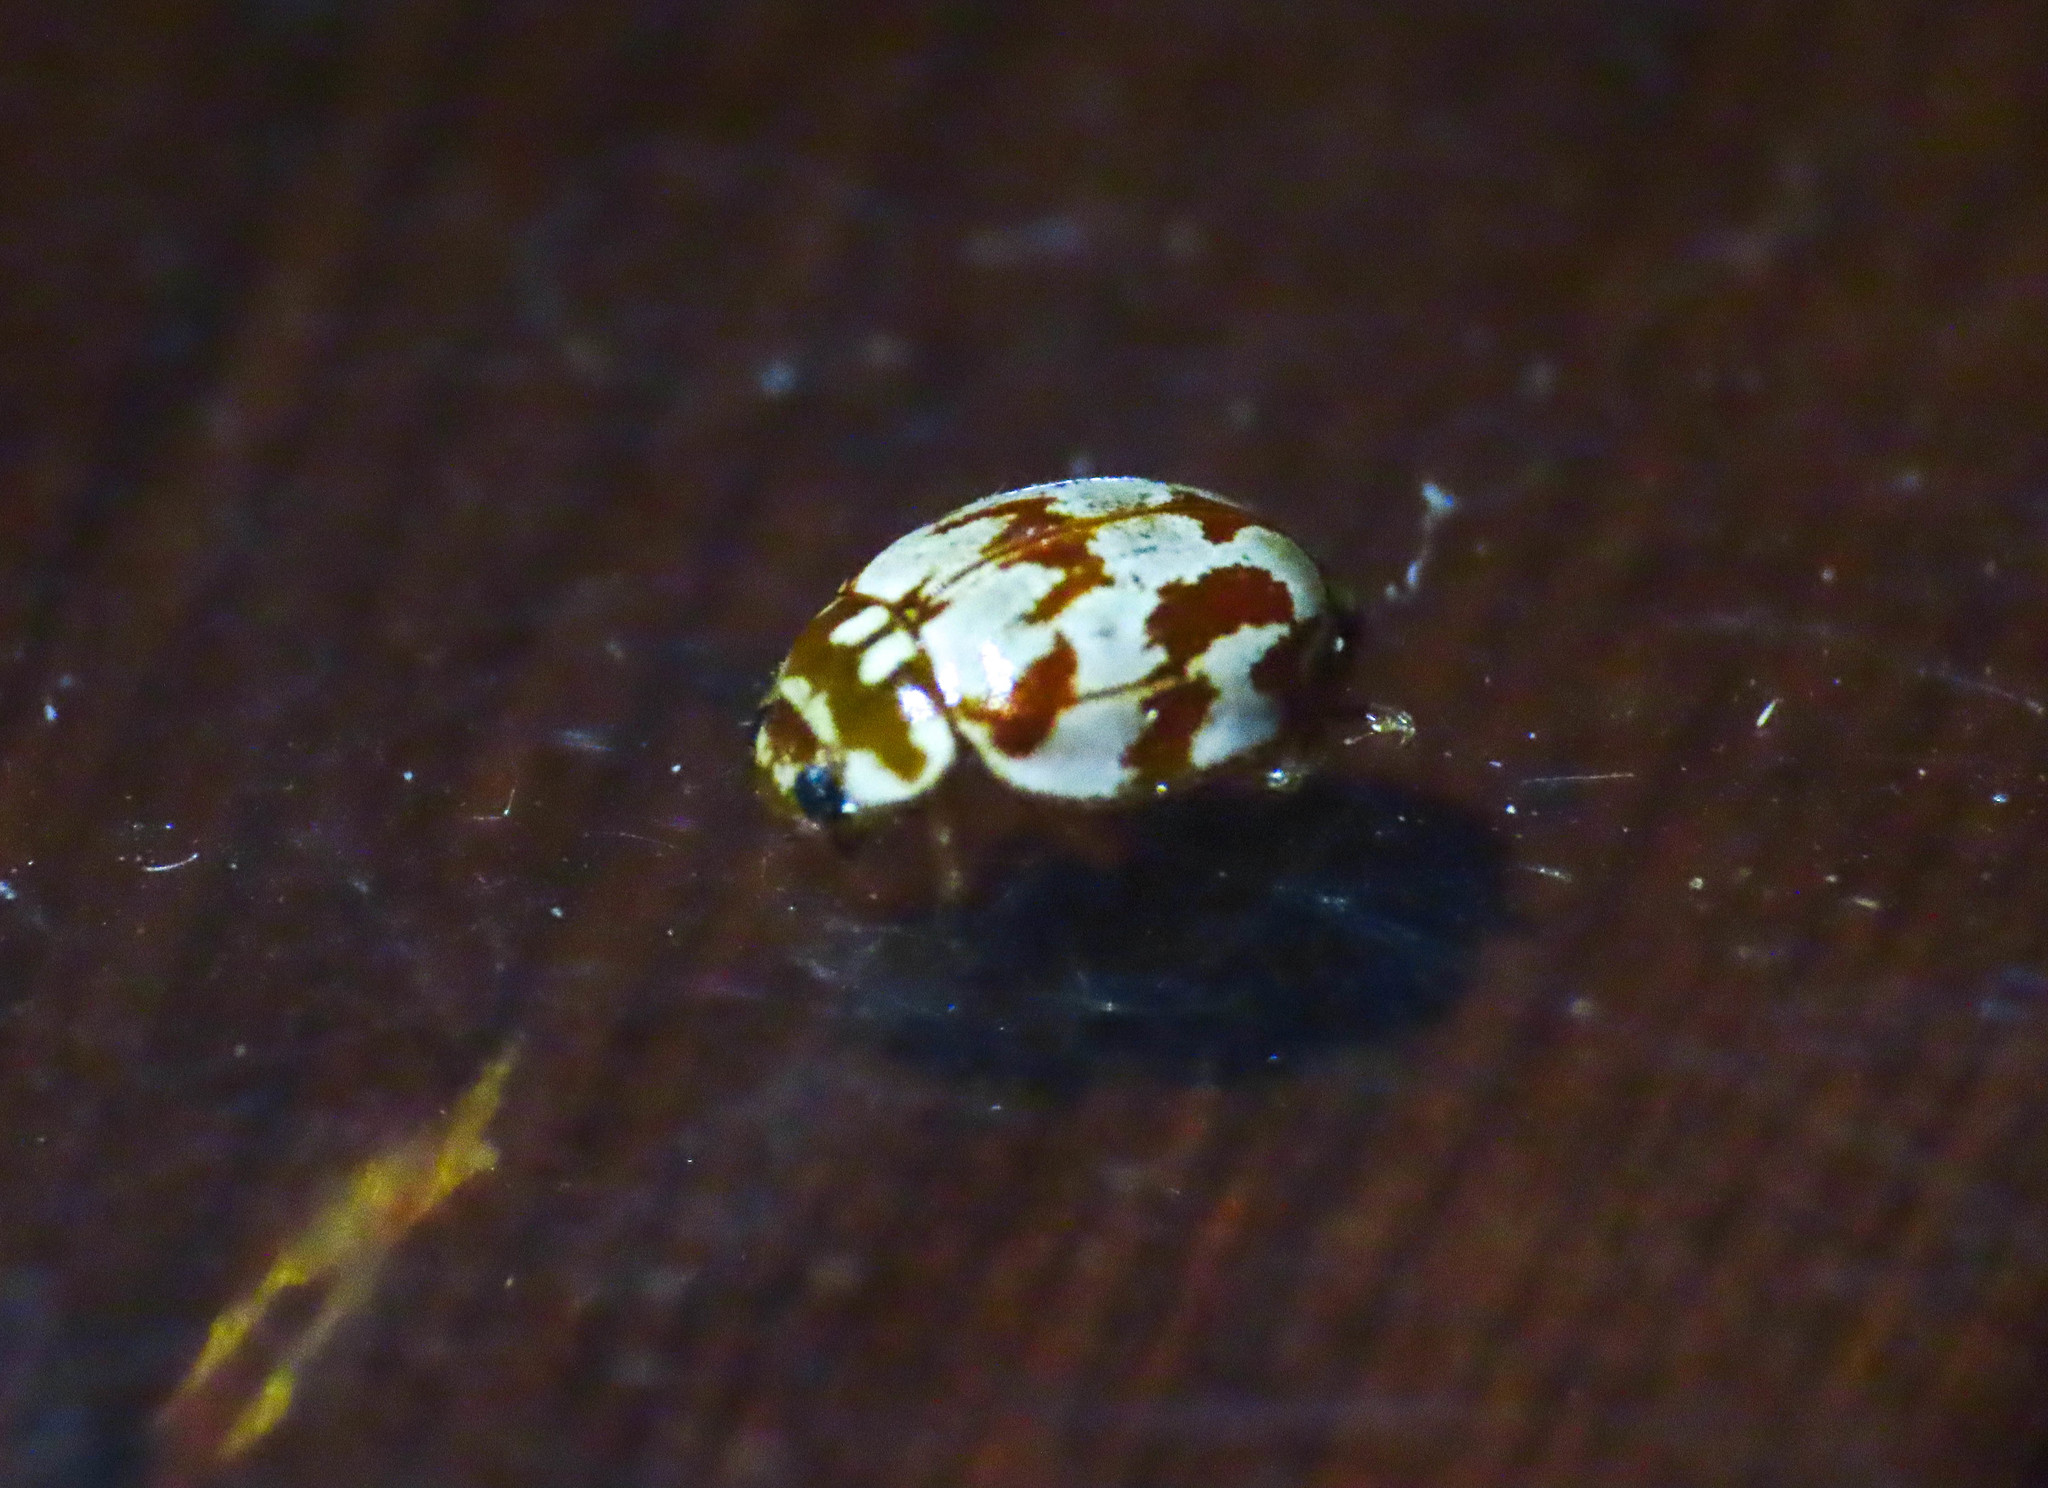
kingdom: Animalia
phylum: Arthropoda
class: Insecta
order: Coleoptera
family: Coccinellidae
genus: Myrrha
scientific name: Myrrha octodecimguttata
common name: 18-spot ladybird
